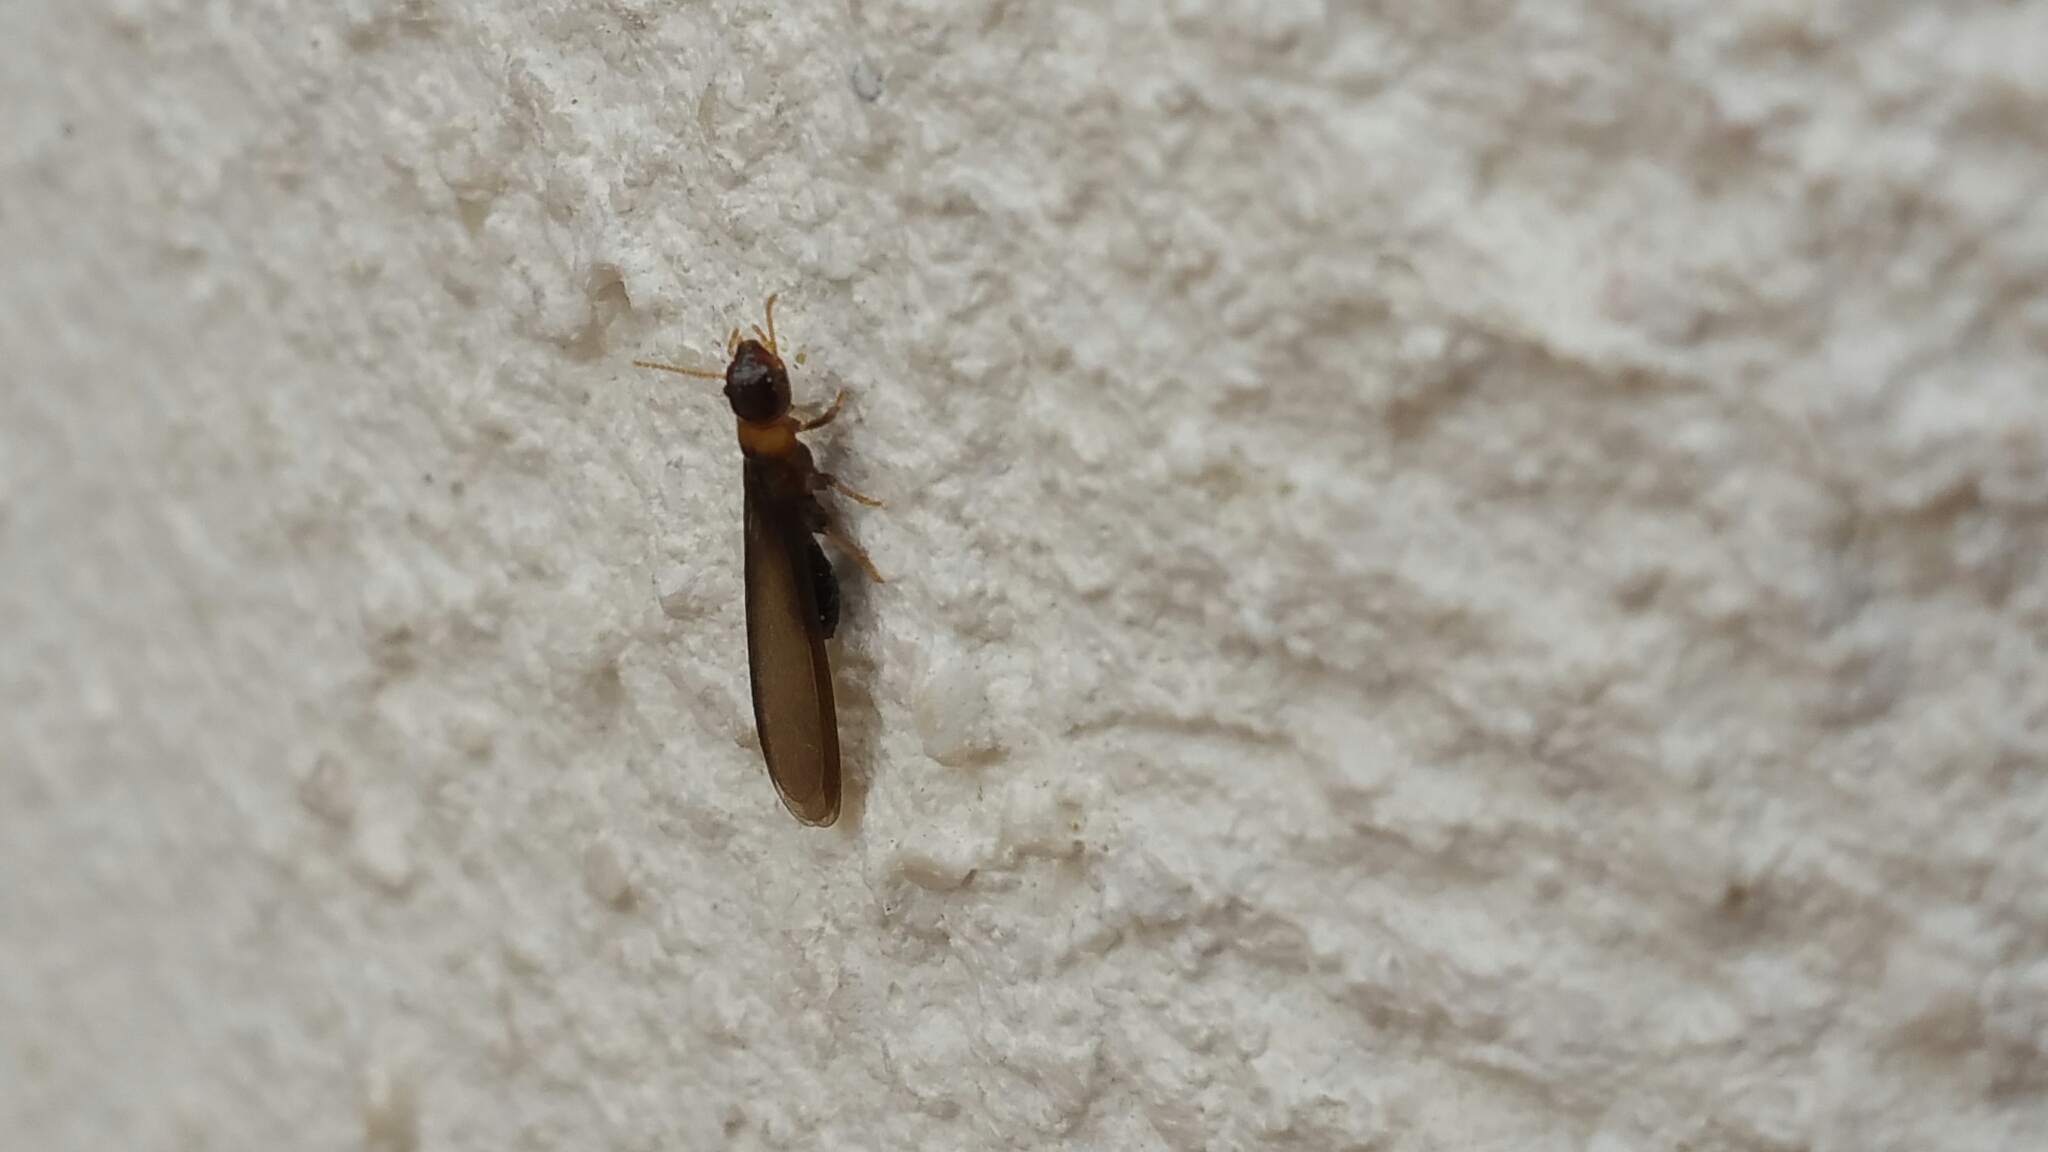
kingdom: Animalia
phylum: Arthropoda
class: Insecta
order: Blattodea
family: Kalotermitidae
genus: Kalotermes
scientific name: Kalotermes flavicollis
